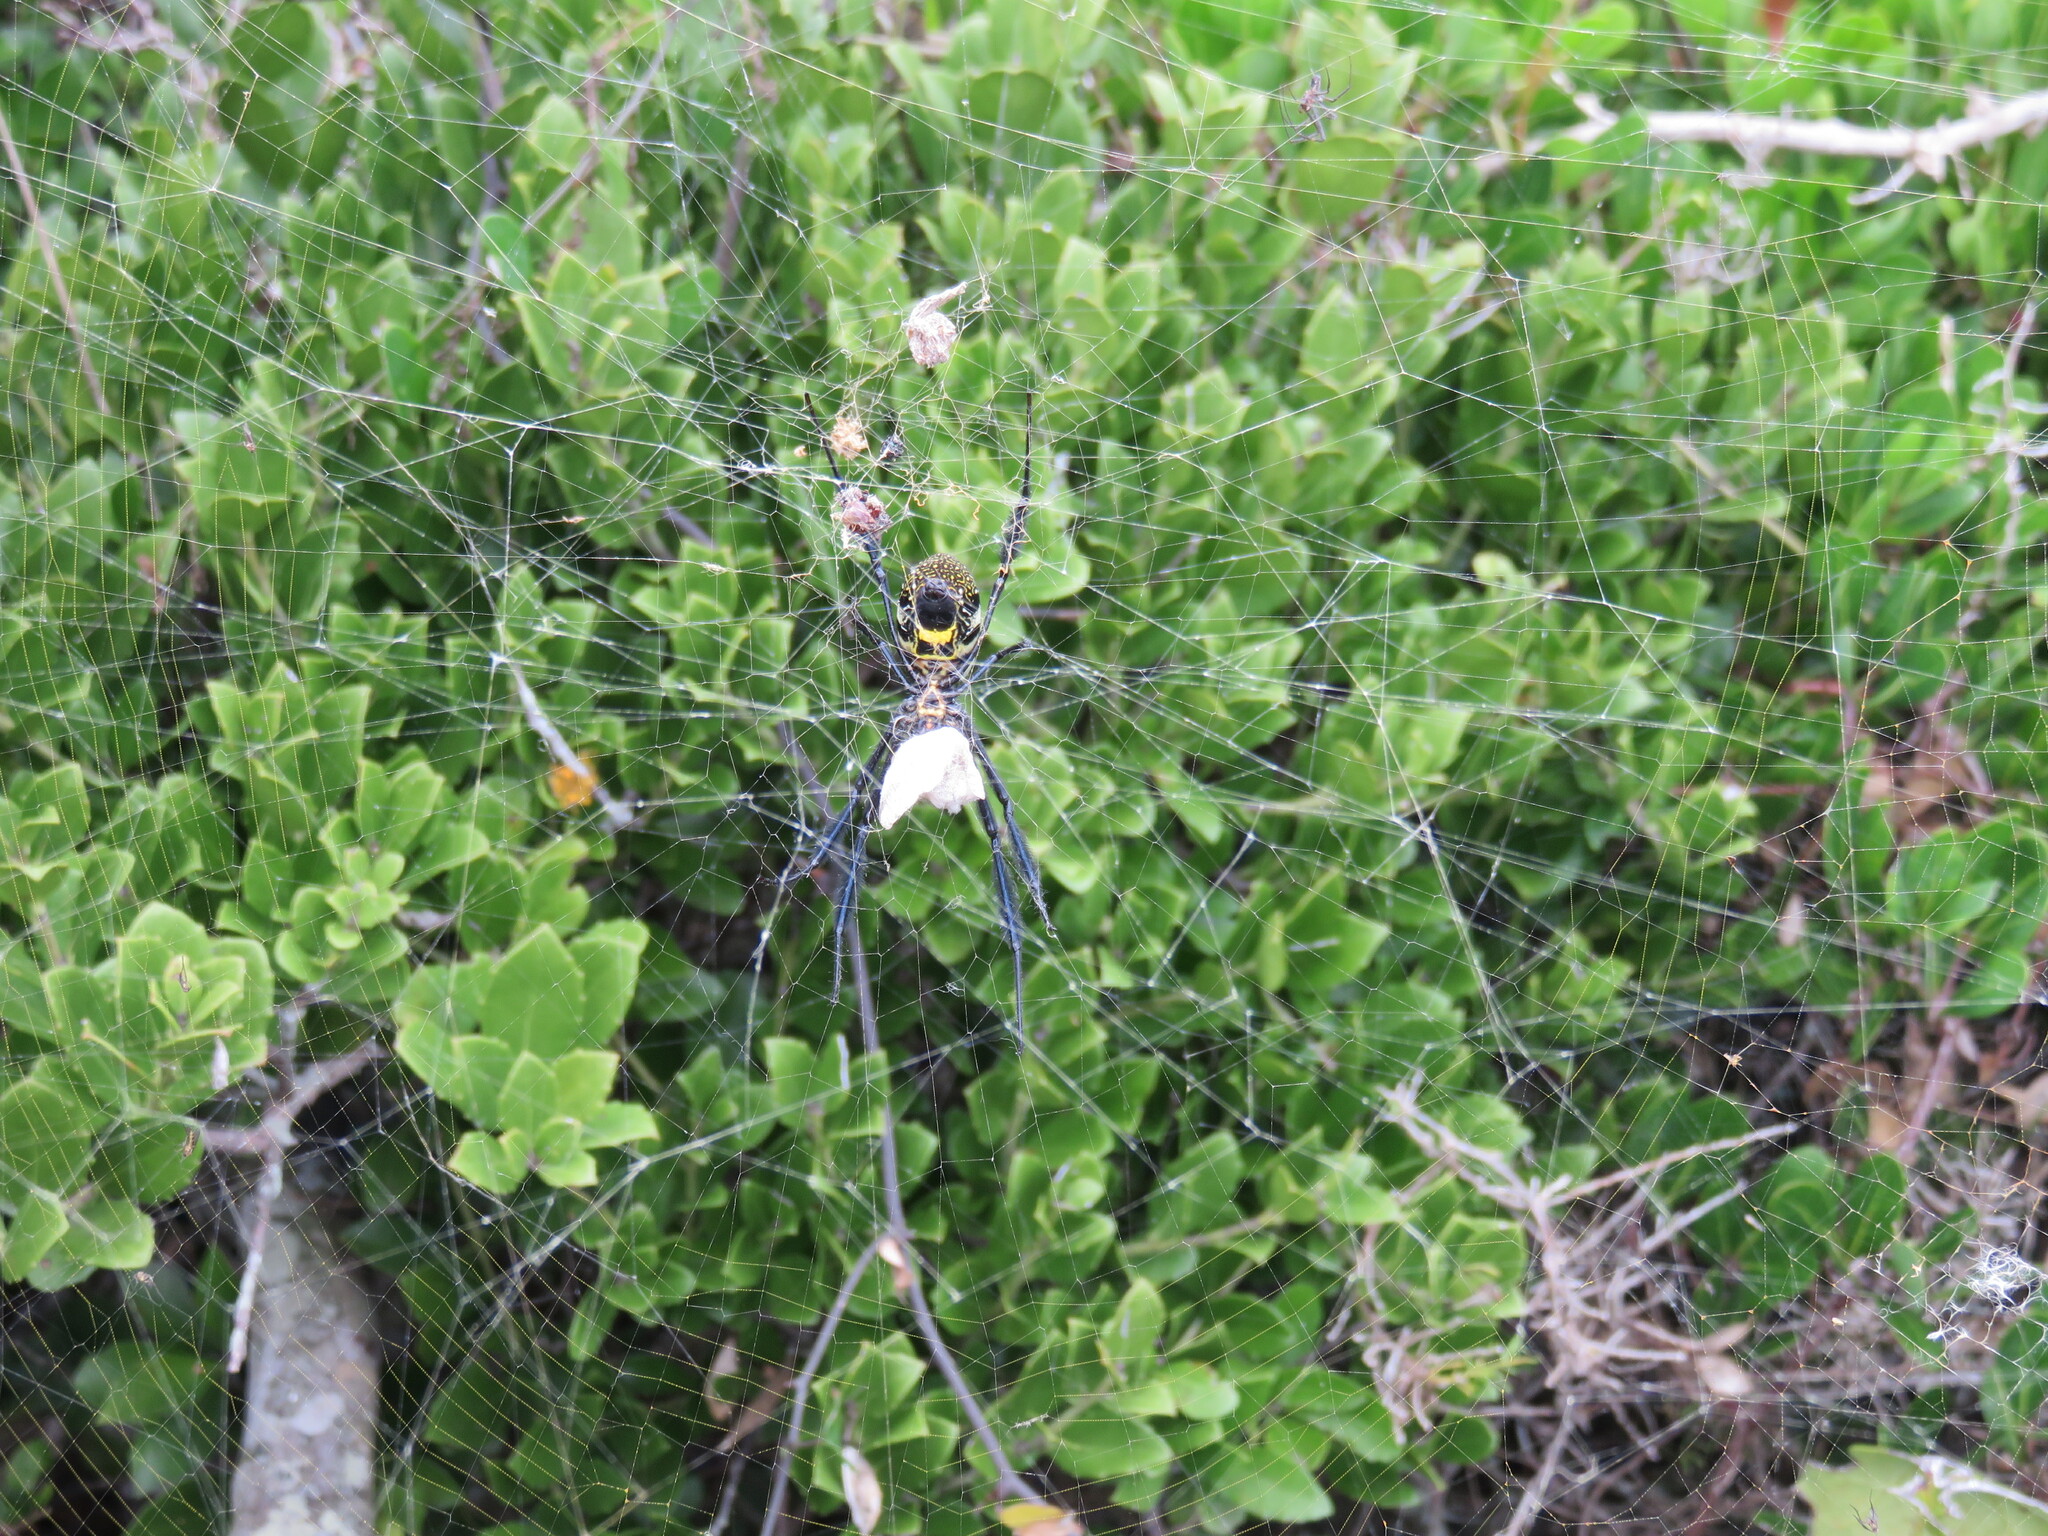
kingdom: Animalia
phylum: Arthropoda
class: Arachnida
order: Araneae
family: Araneidae
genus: Trichonephila
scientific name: Trichonephila fenestrata
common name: Hairy golden orb weaver
